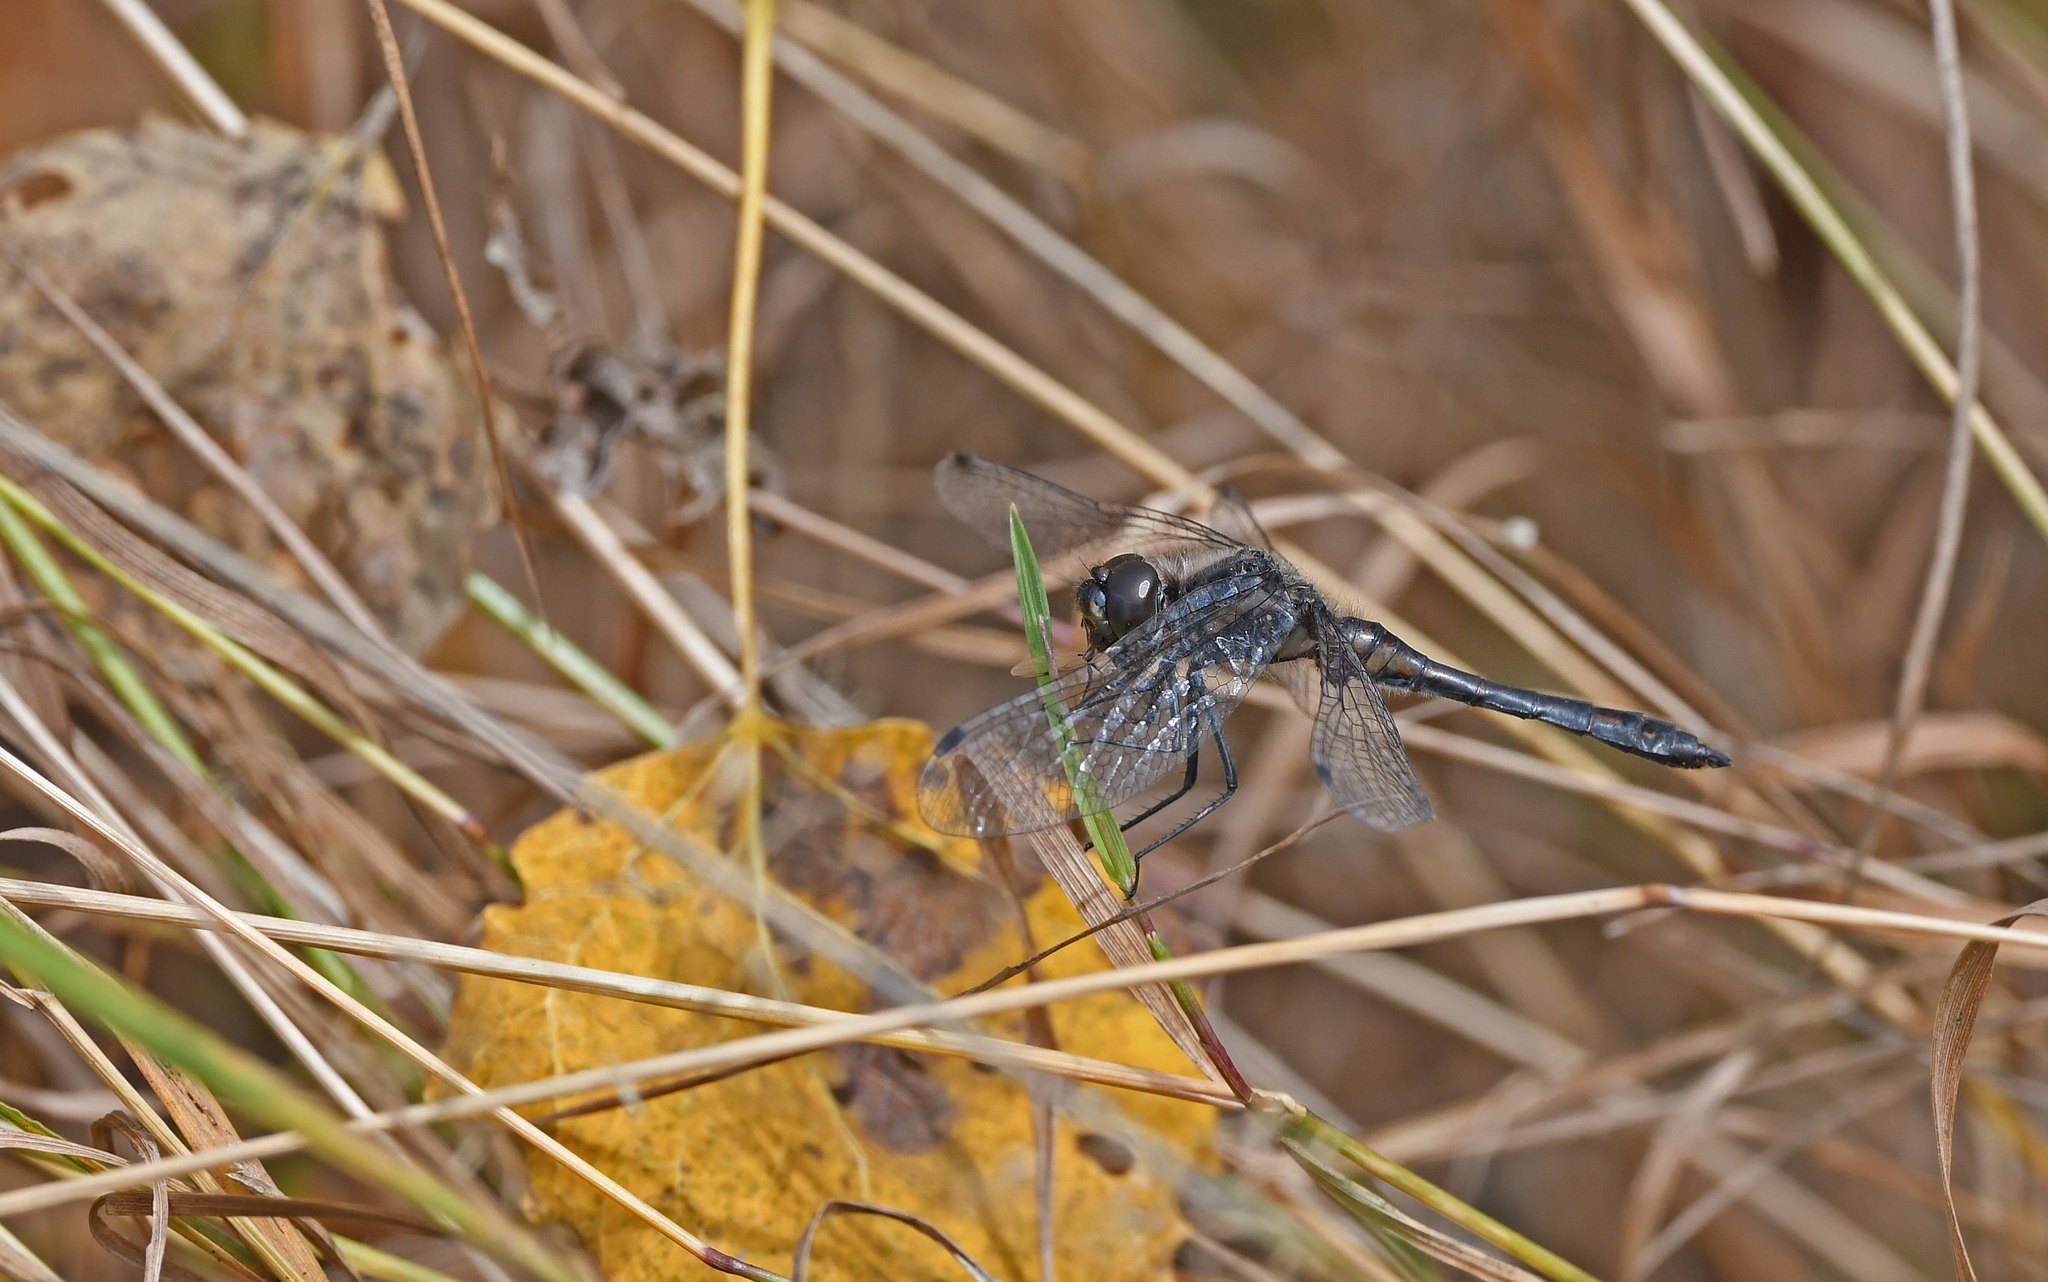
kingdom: Animalia
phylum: Arthropoda
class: Insecta
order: Odonata
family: Libellulidae
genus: Sympetrum
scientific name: Sympetrum danae
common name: Black darter
